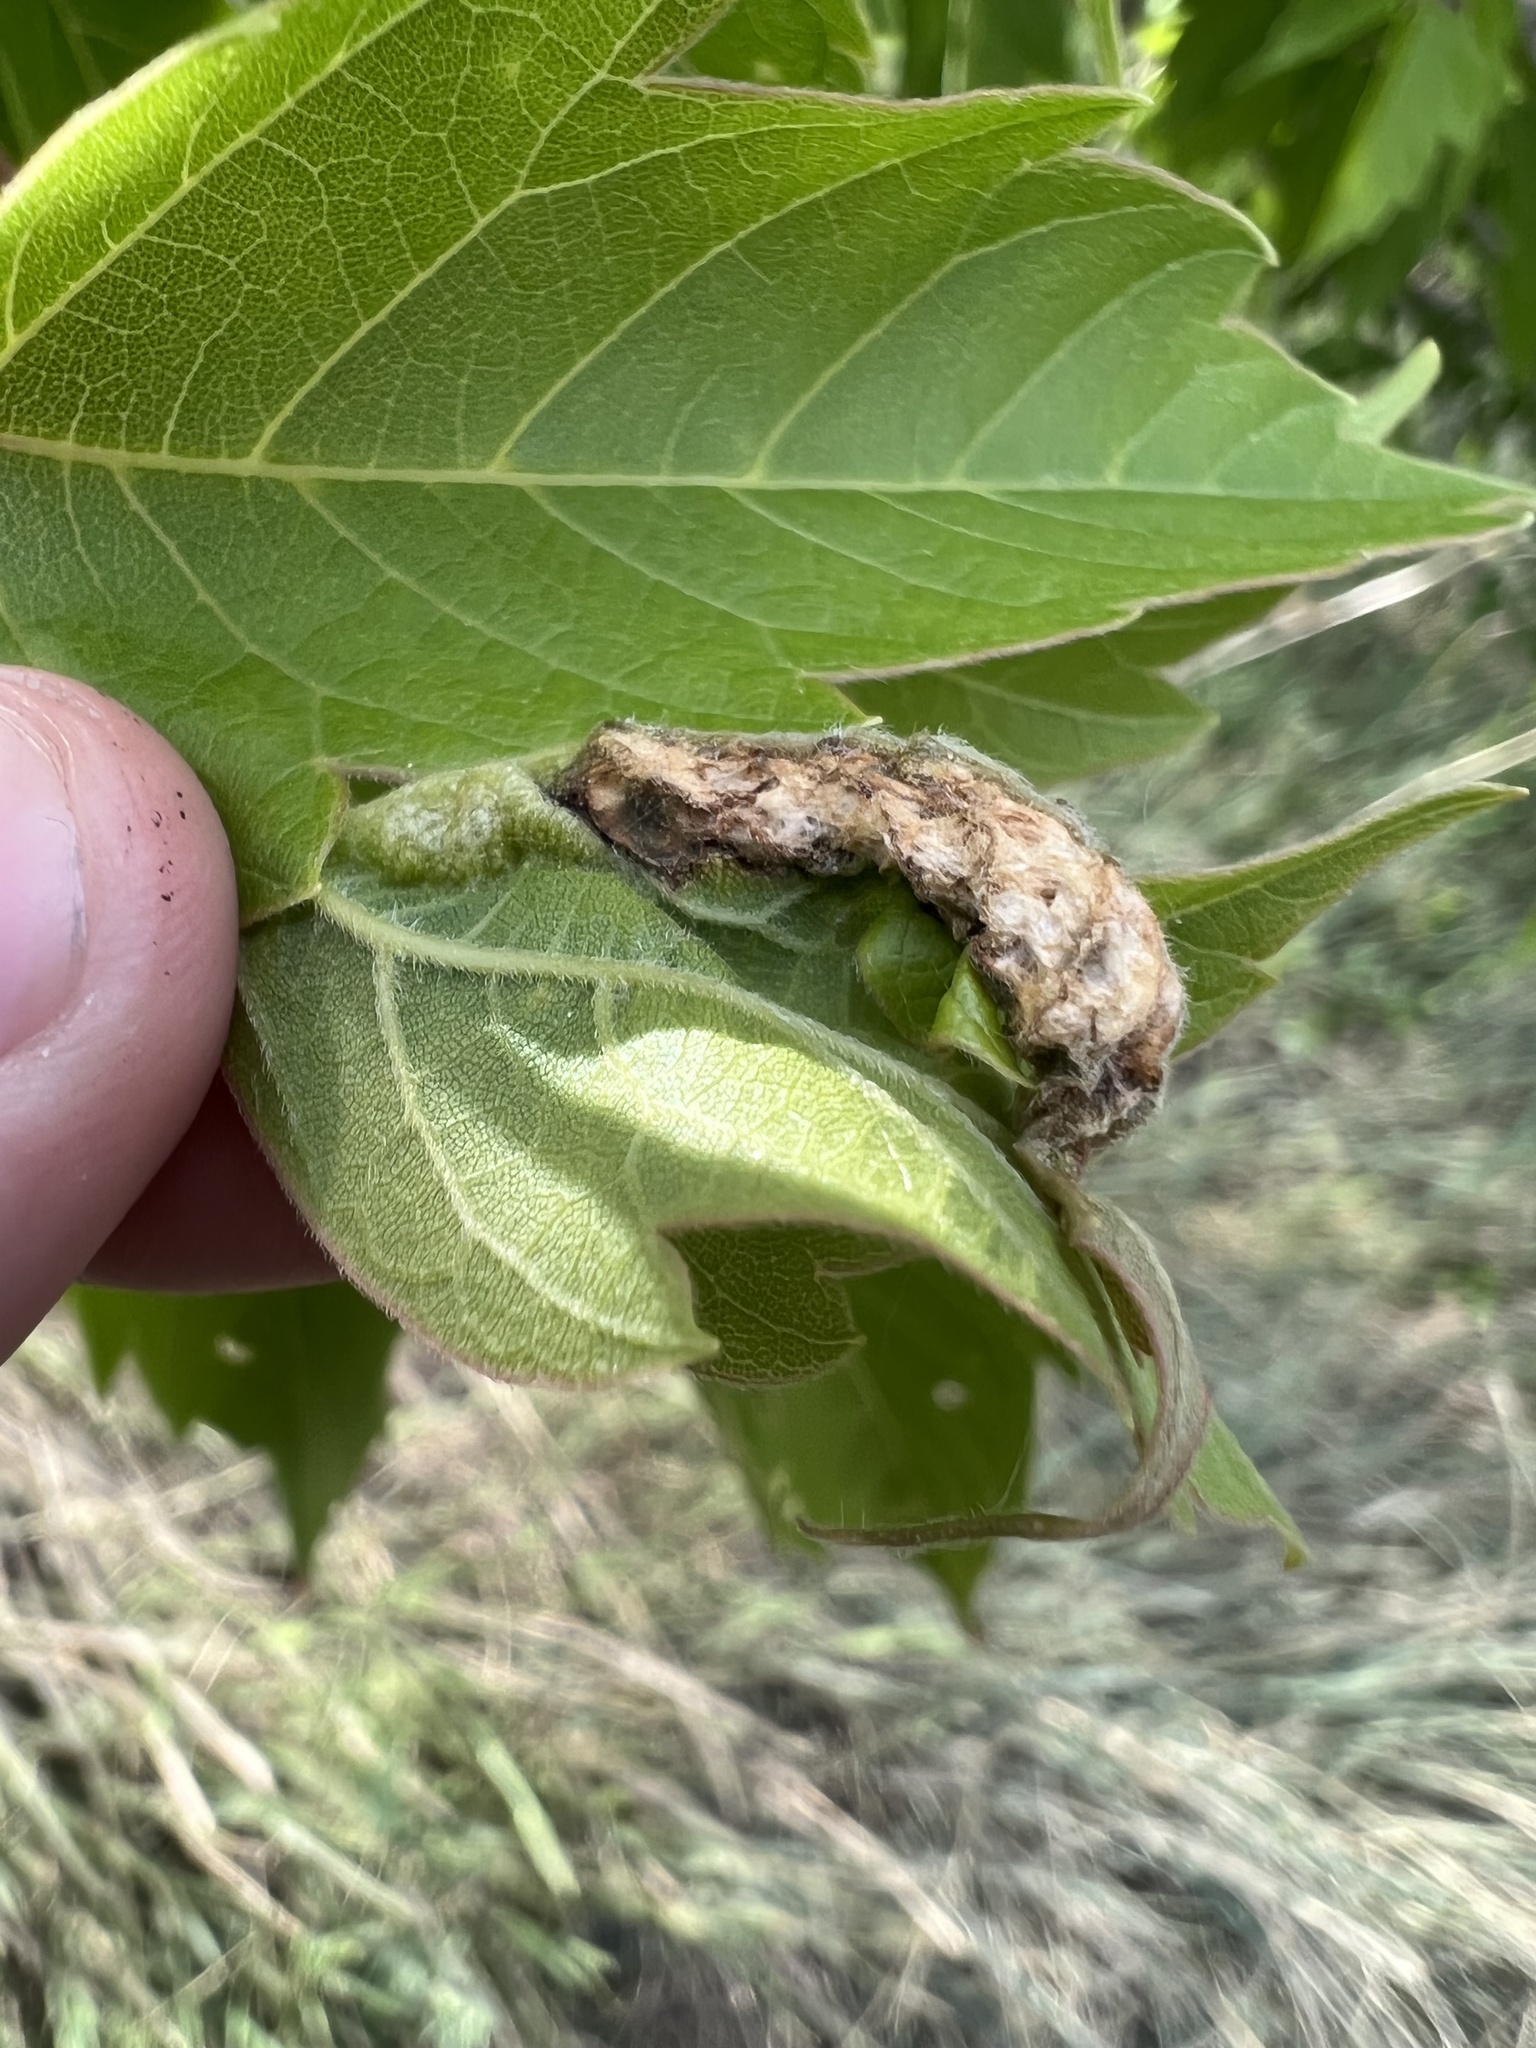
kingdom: Animalia
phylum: Arthropoda
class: Insecta
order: Diptera
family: Cecidomyiidae
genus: Contarinia
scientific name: Contarinia negundinis
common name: Boxelder budgall midge
